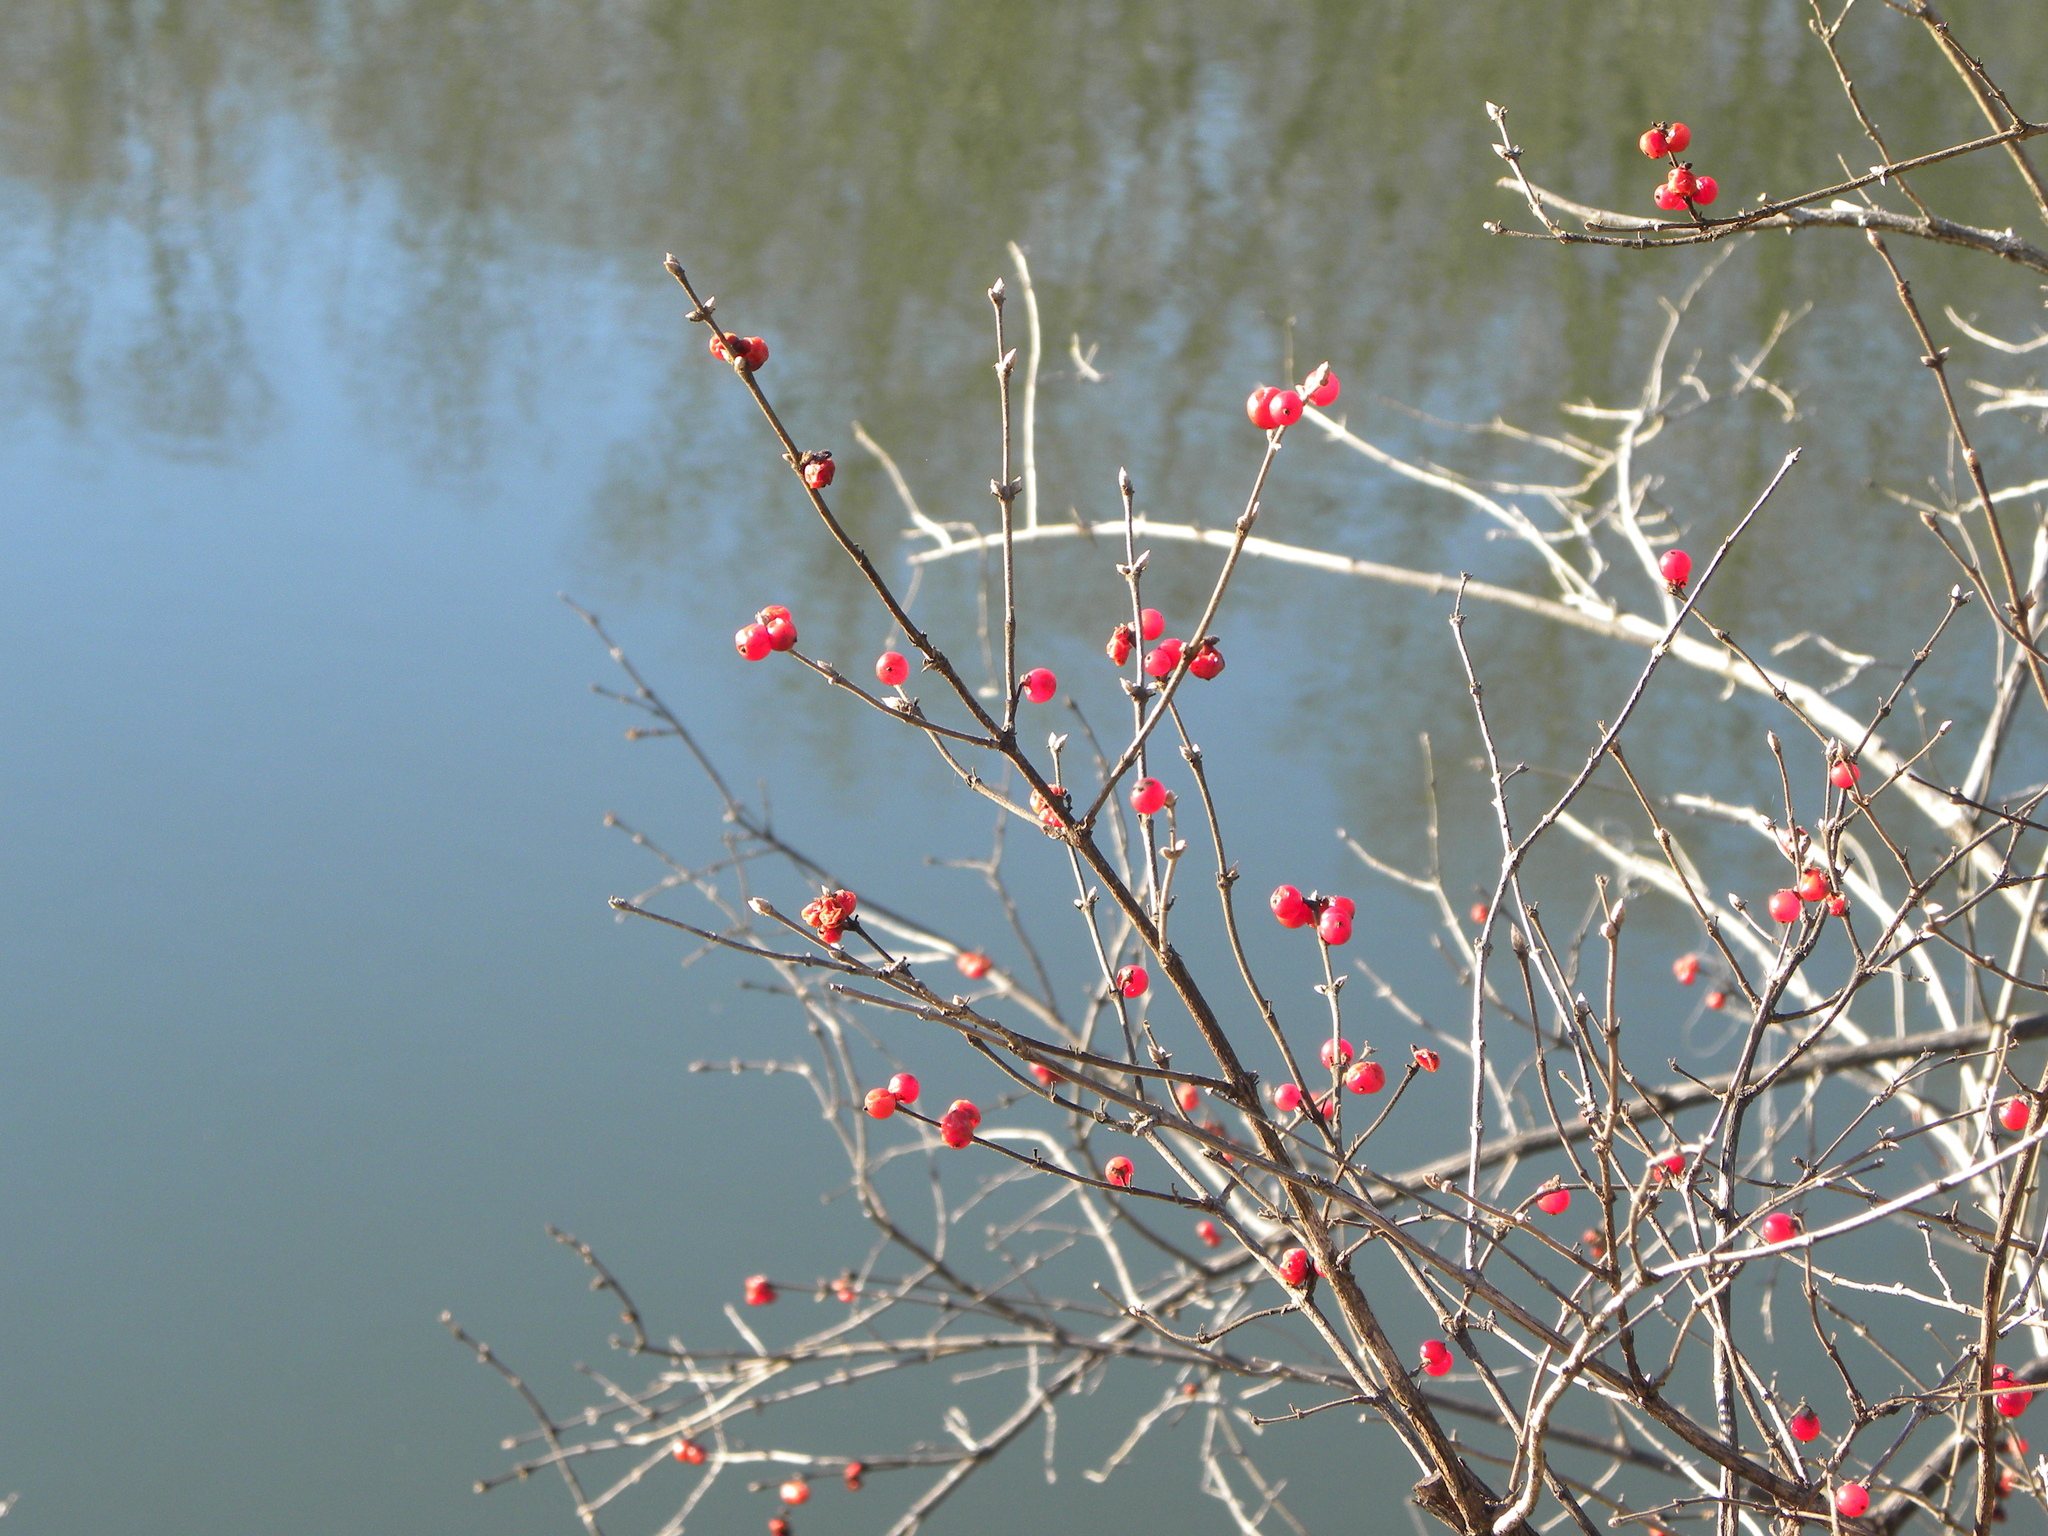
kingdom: Plantae
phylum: Tracheophyta
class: Magnoliopsida
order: Dipsacales
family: Caprifoliaceae
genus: Lonicera
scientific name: Lonicera maackii
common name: Amur honeysuckle
